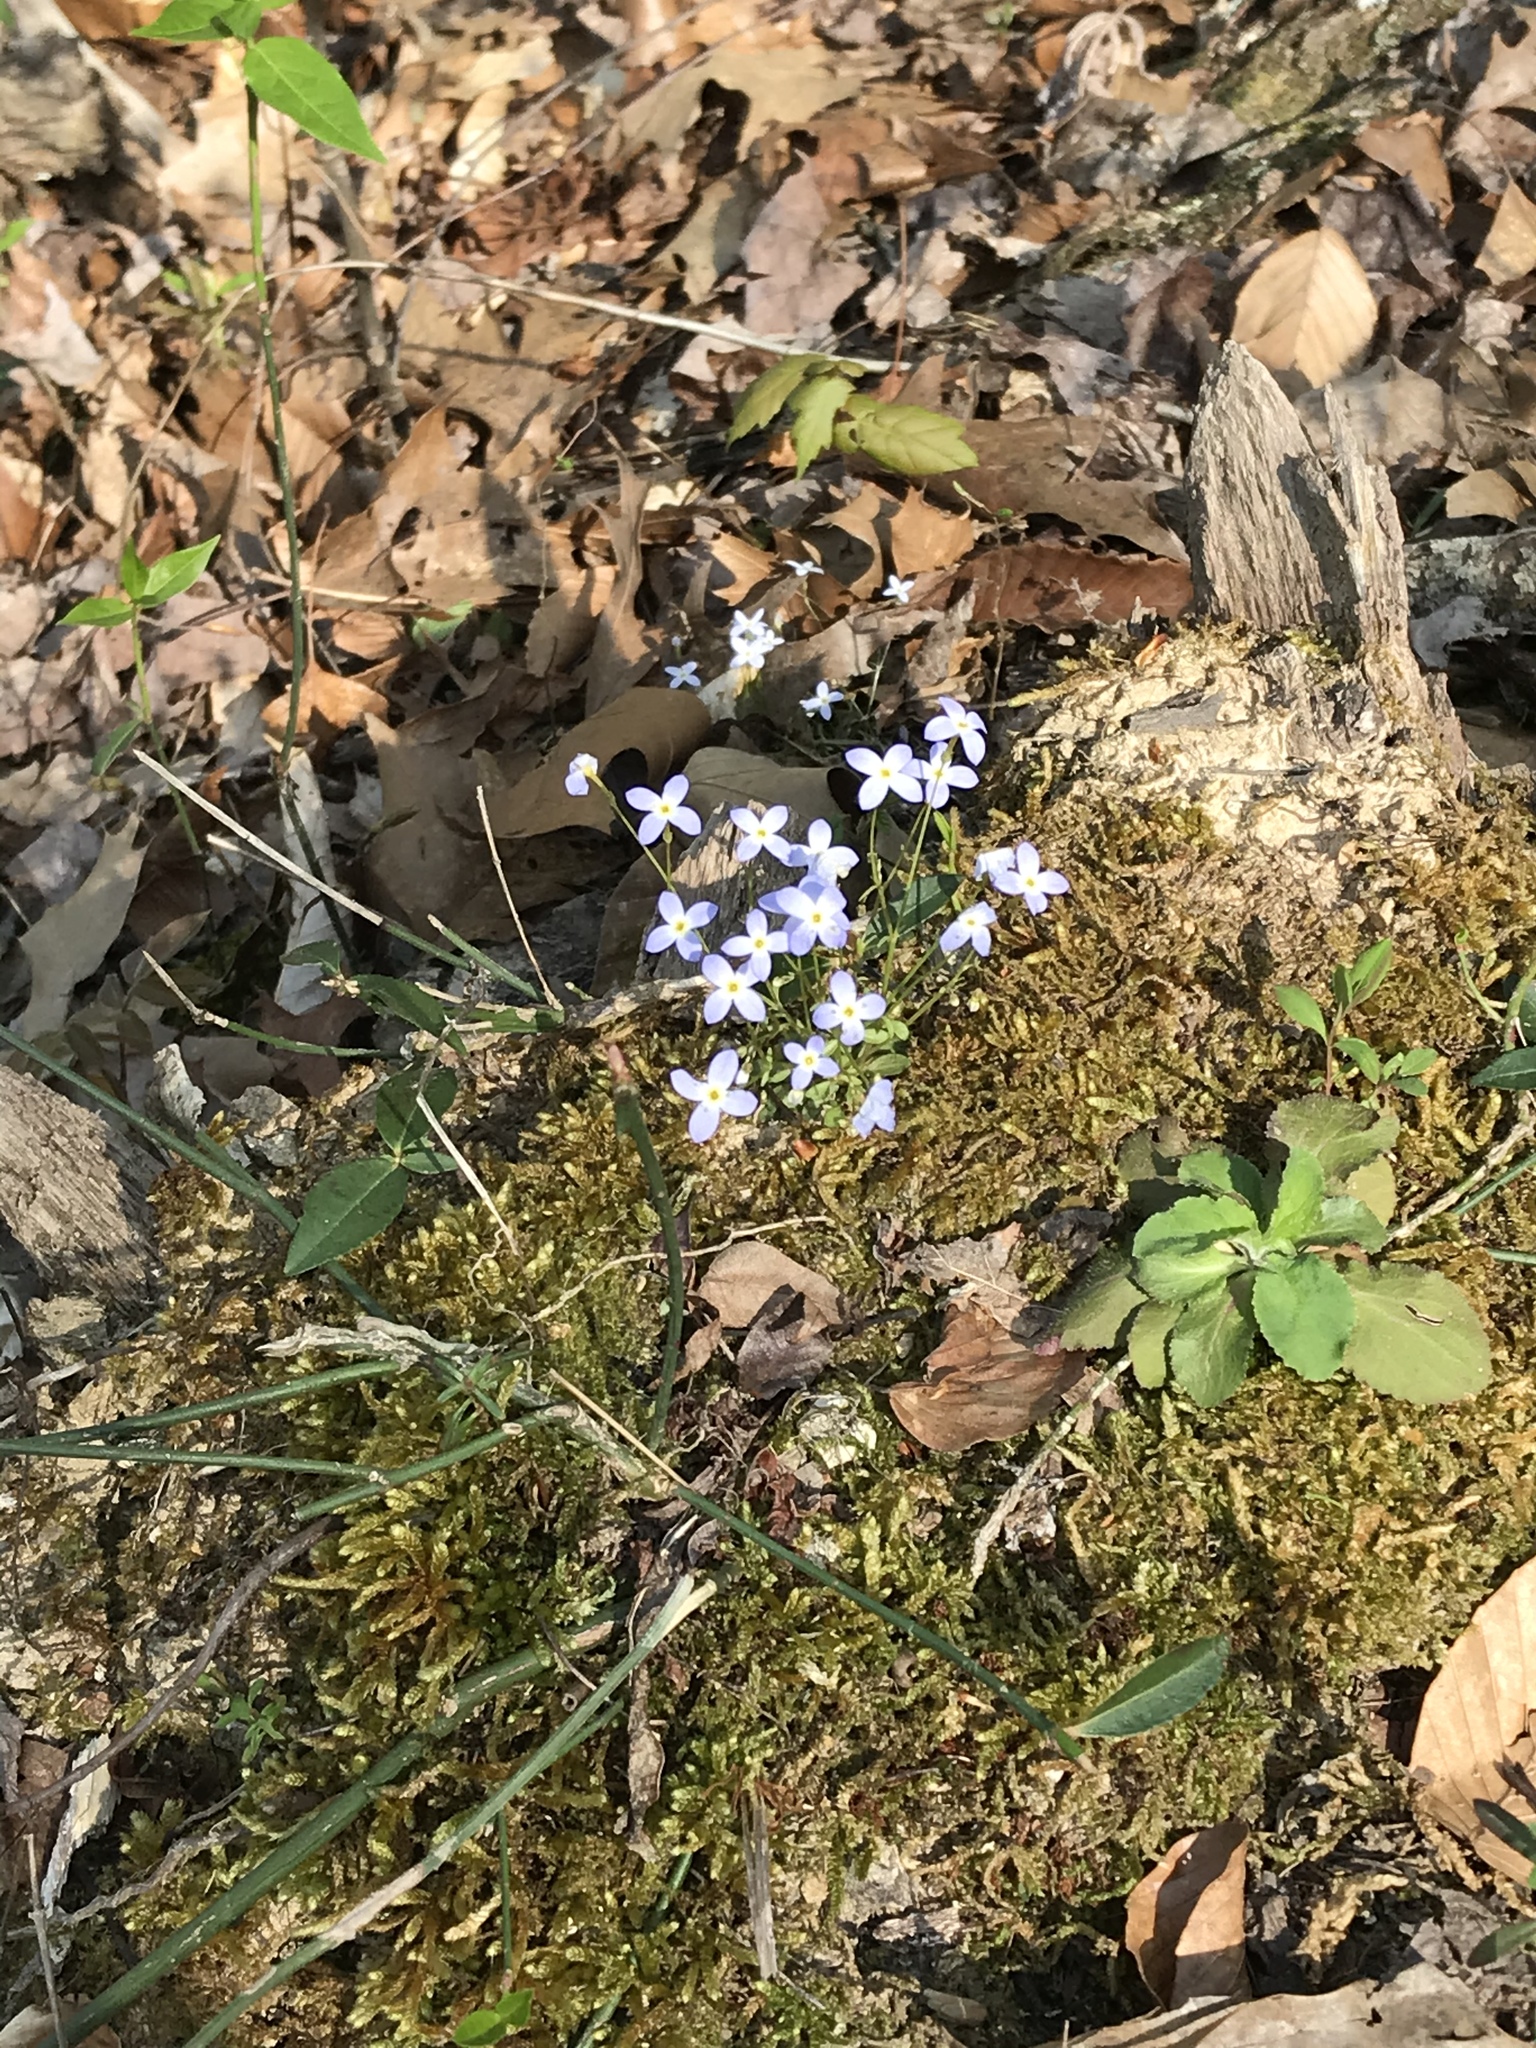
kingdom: Plantae
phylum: Tracheophyta
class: Magnoliopsida
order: Gentianales
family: Rubiaceae
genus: Houstonia
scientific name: Houstonia caerulea
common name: Bluets
